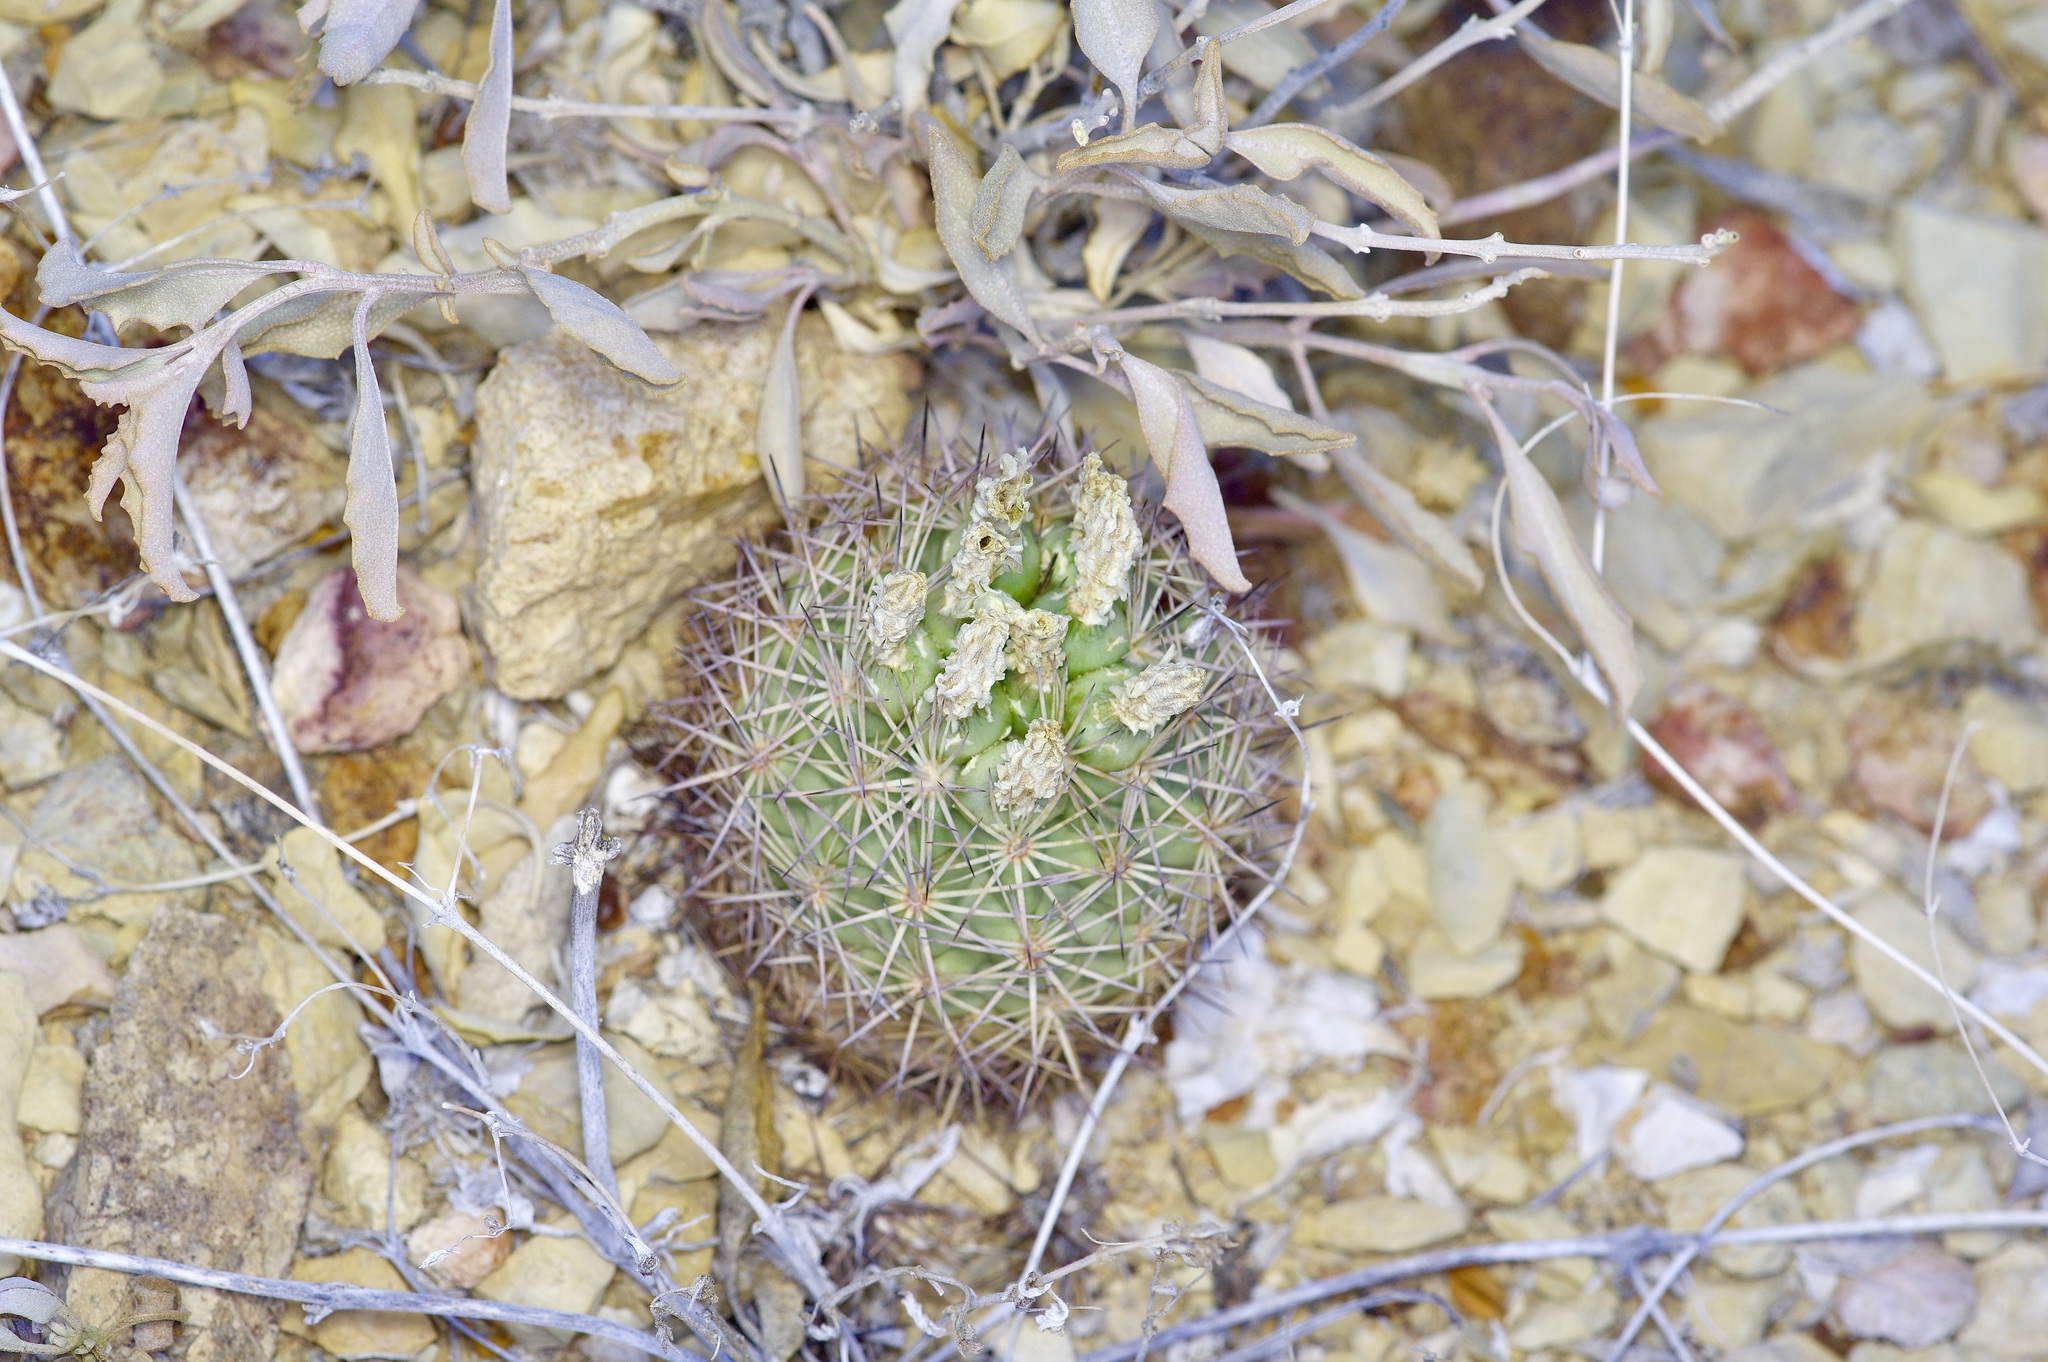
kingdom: Plantae
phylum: Tracheophyta
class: Magnoliopsida
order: Caryophyllales
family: Cactaceae
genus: Sclerocactus
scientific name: Sclerocactus warnockii
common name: Pineapple cactus
